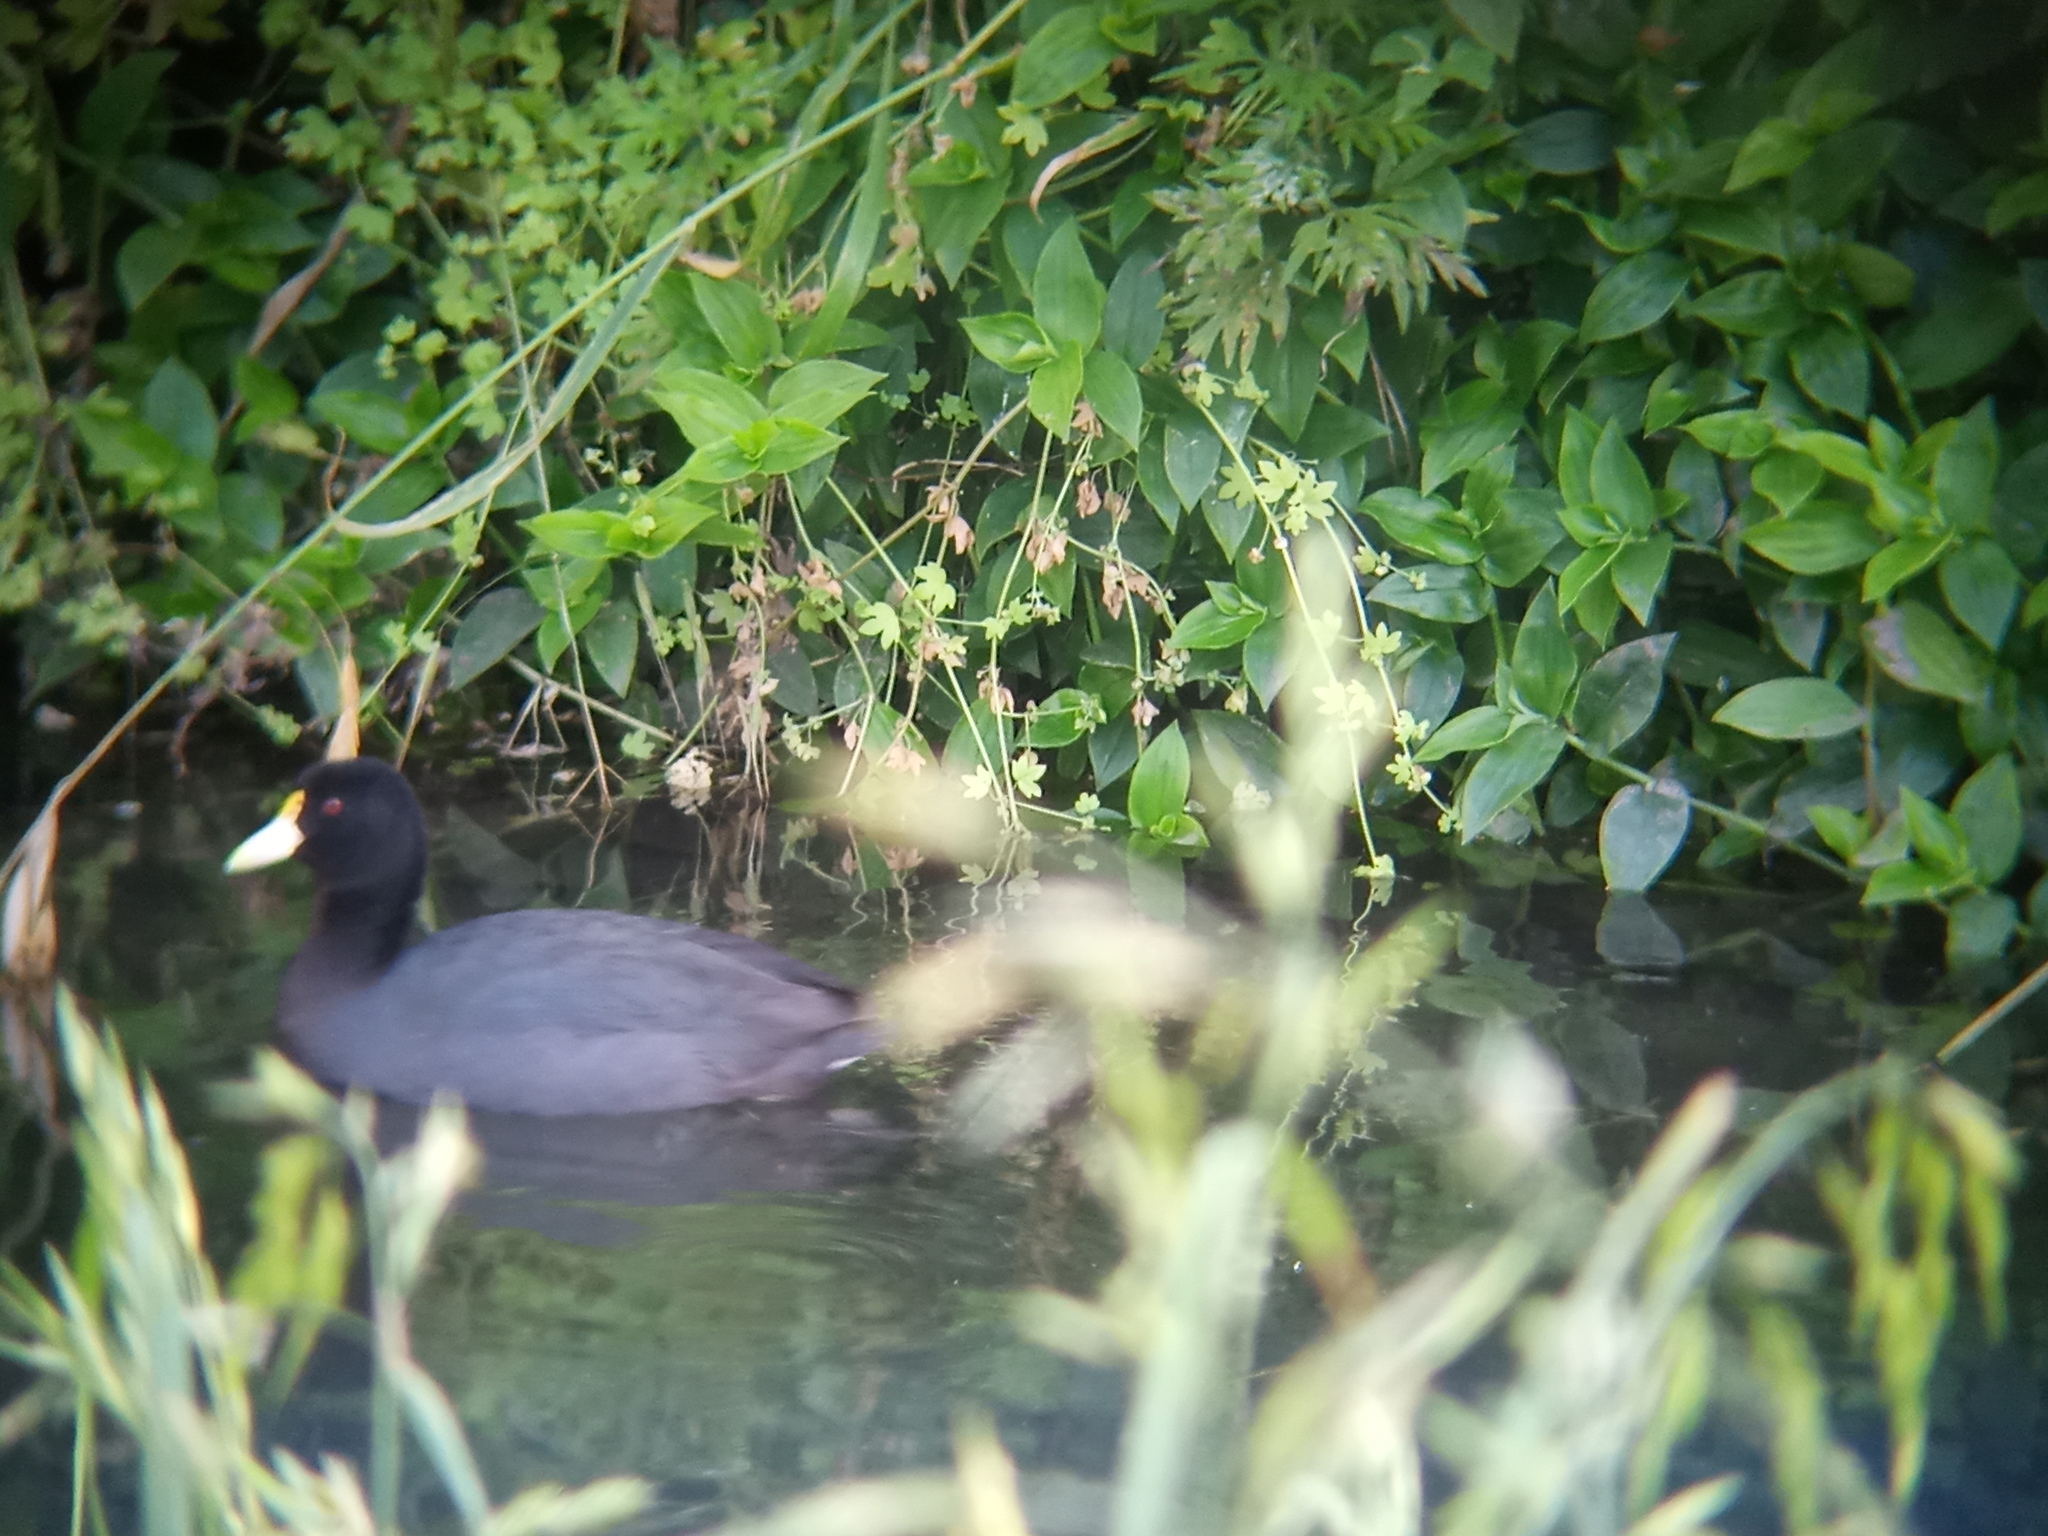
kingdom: Animalia
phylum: Chordata
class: Aves
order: Gruiformes
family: Rallidae
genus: Fulica
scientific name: Fulica leucoptera
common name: White-winged coot
